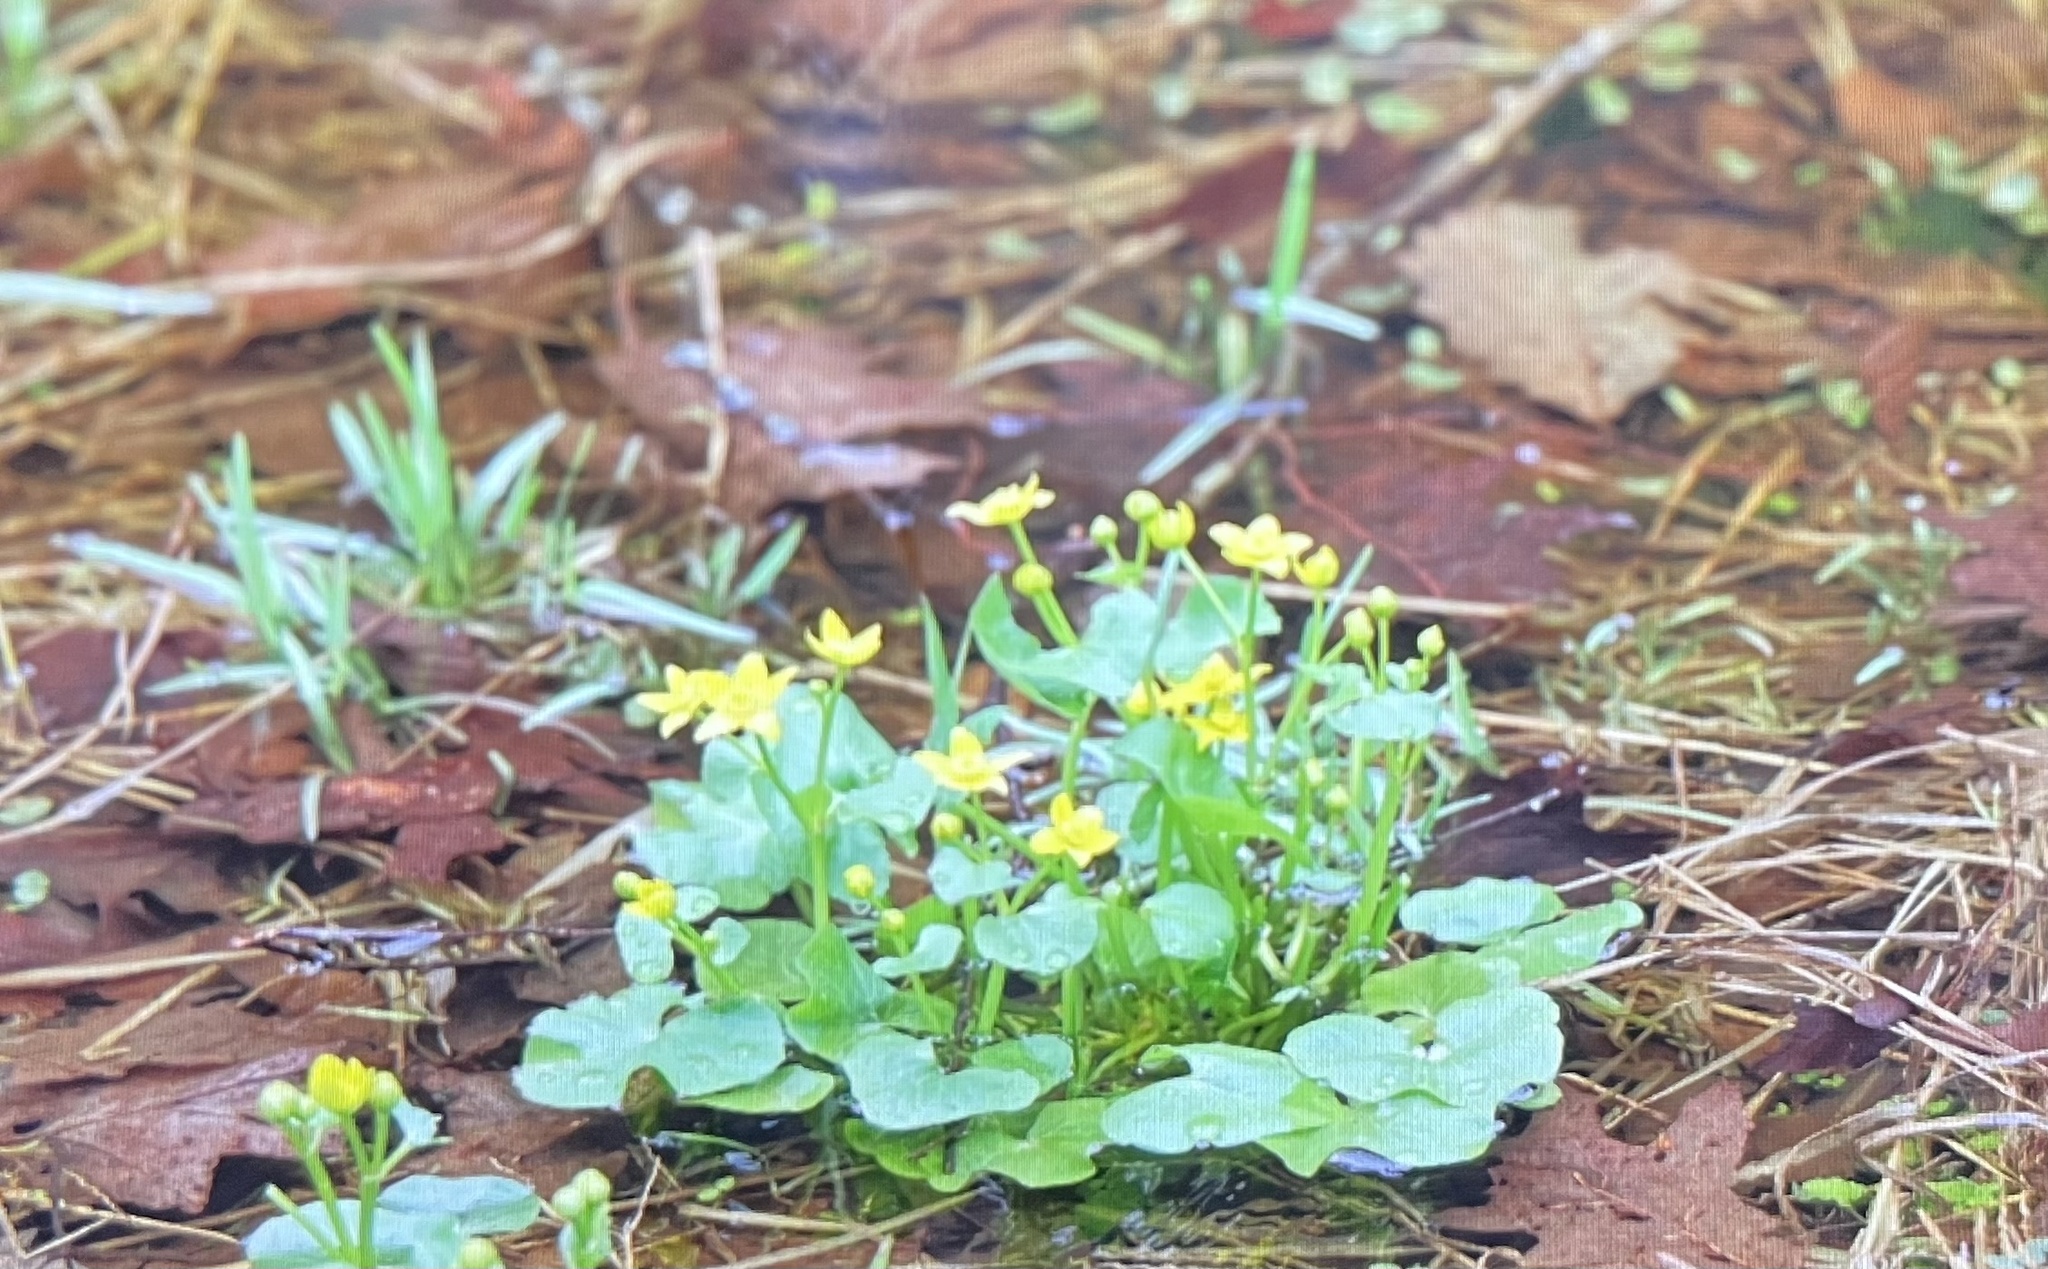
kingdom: Plantae
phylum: Tracheophyta
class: Magnoliopsida
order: Ranunculales
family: Ranunculaceae
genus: Caltha
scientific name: Caltha palustris
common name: Marsh marigold
